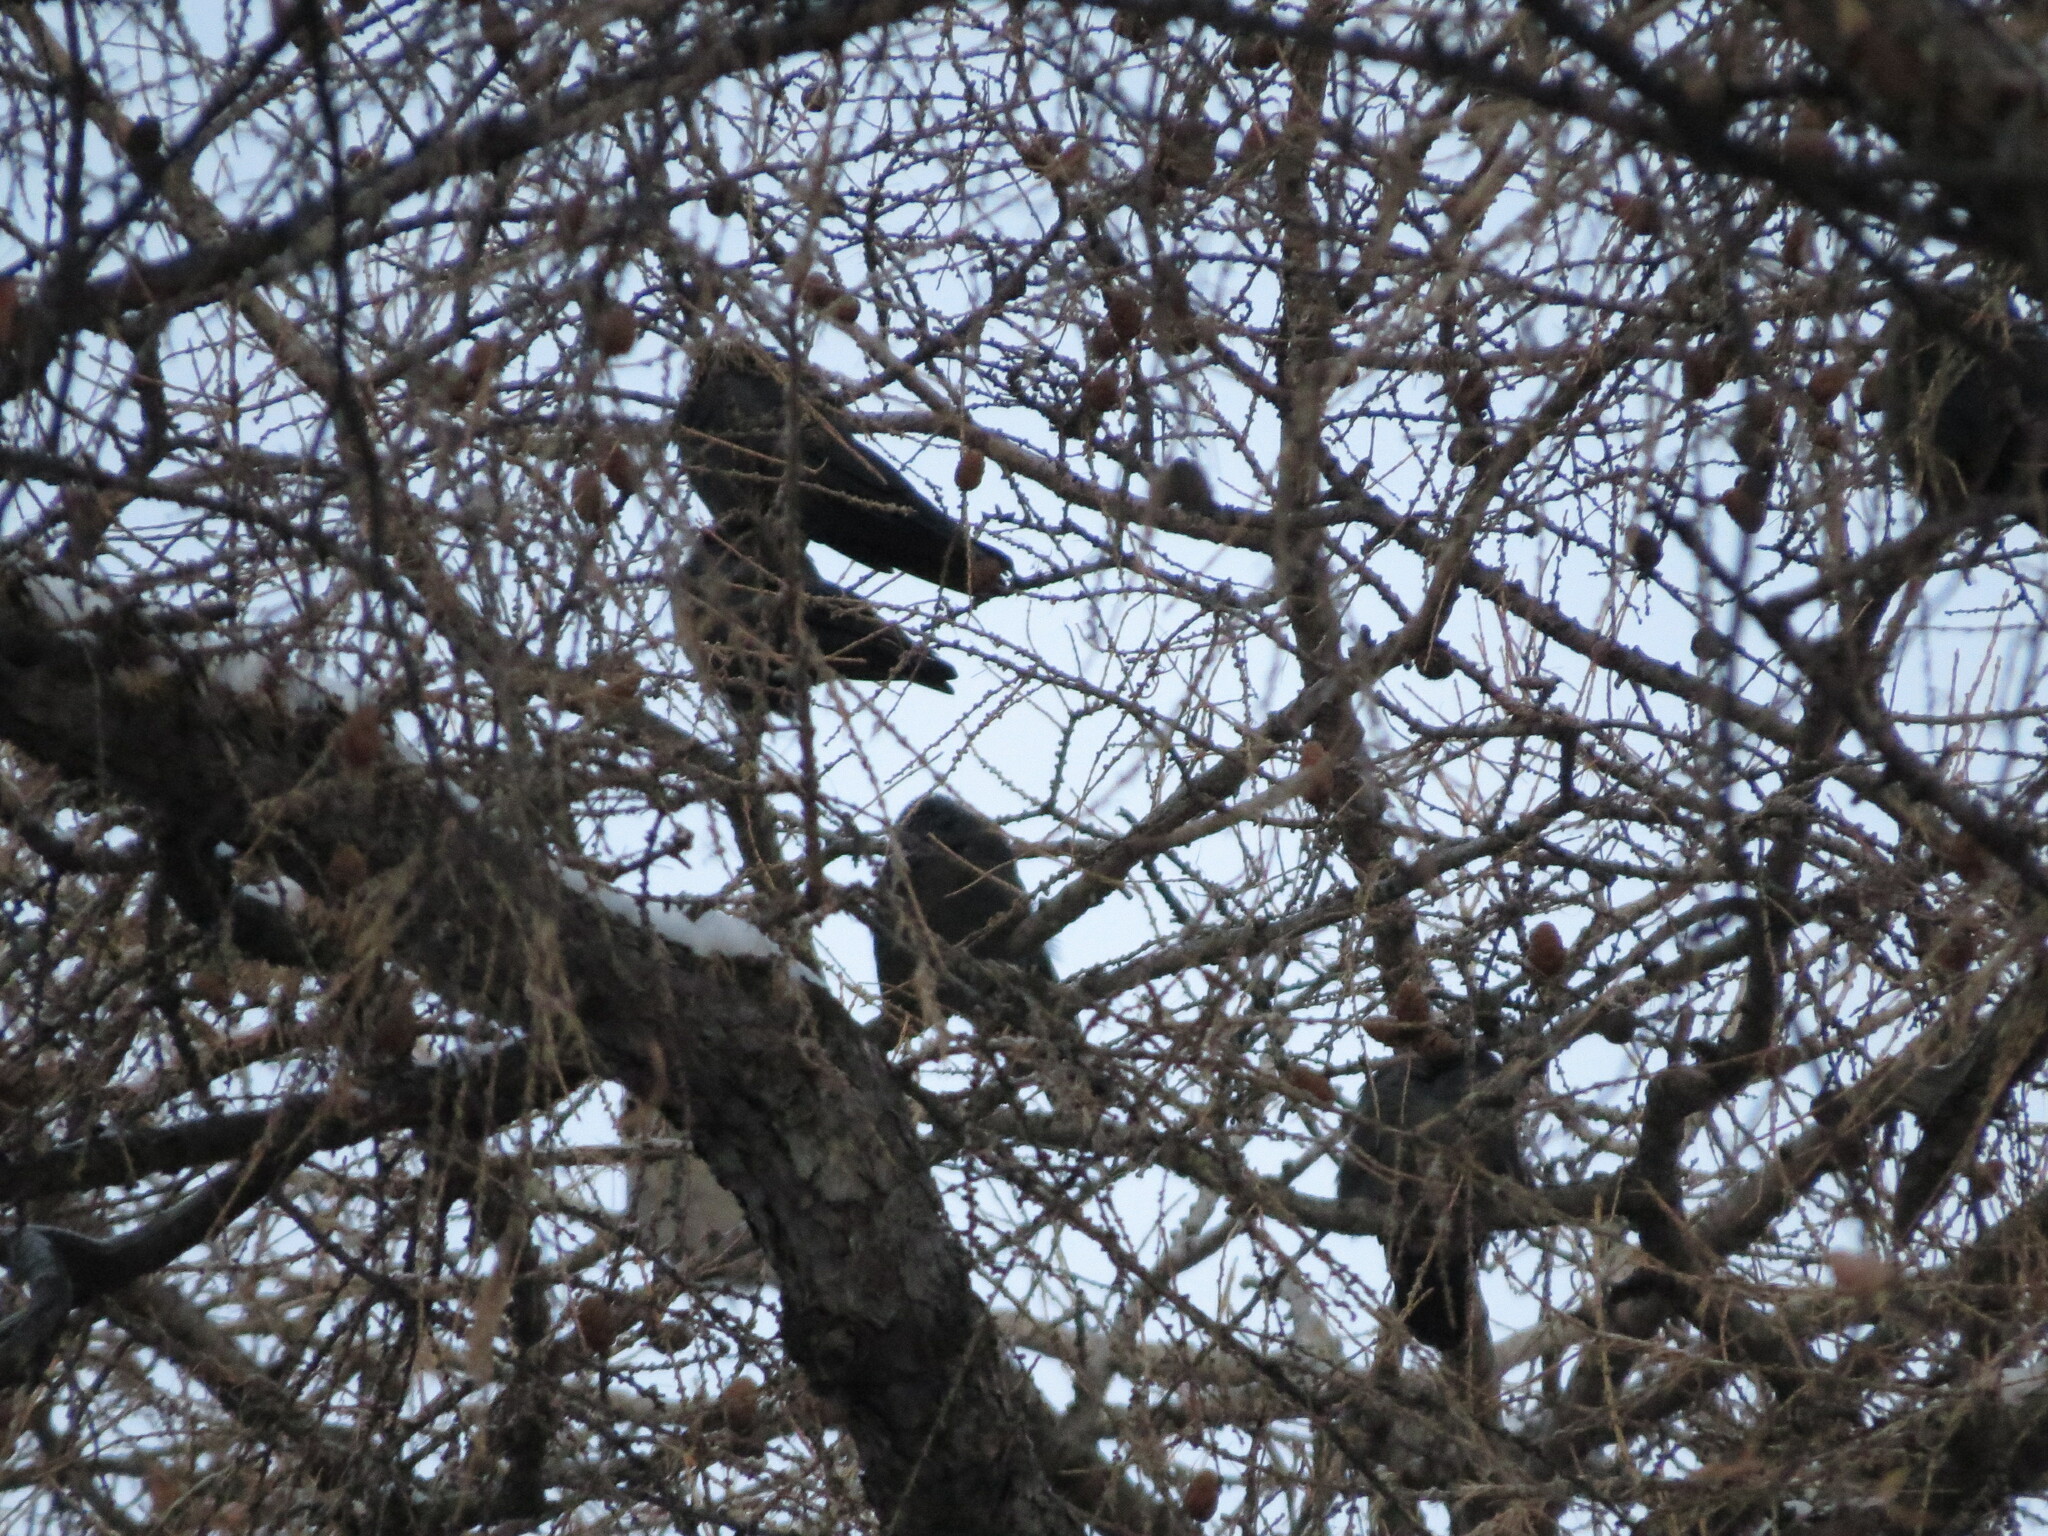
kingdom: Animalia
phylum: Chordata
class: Aves
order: Passeriformes
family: Corvidae
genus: Coloeus
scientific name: Coloeus monedula
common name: Western jackdaw
